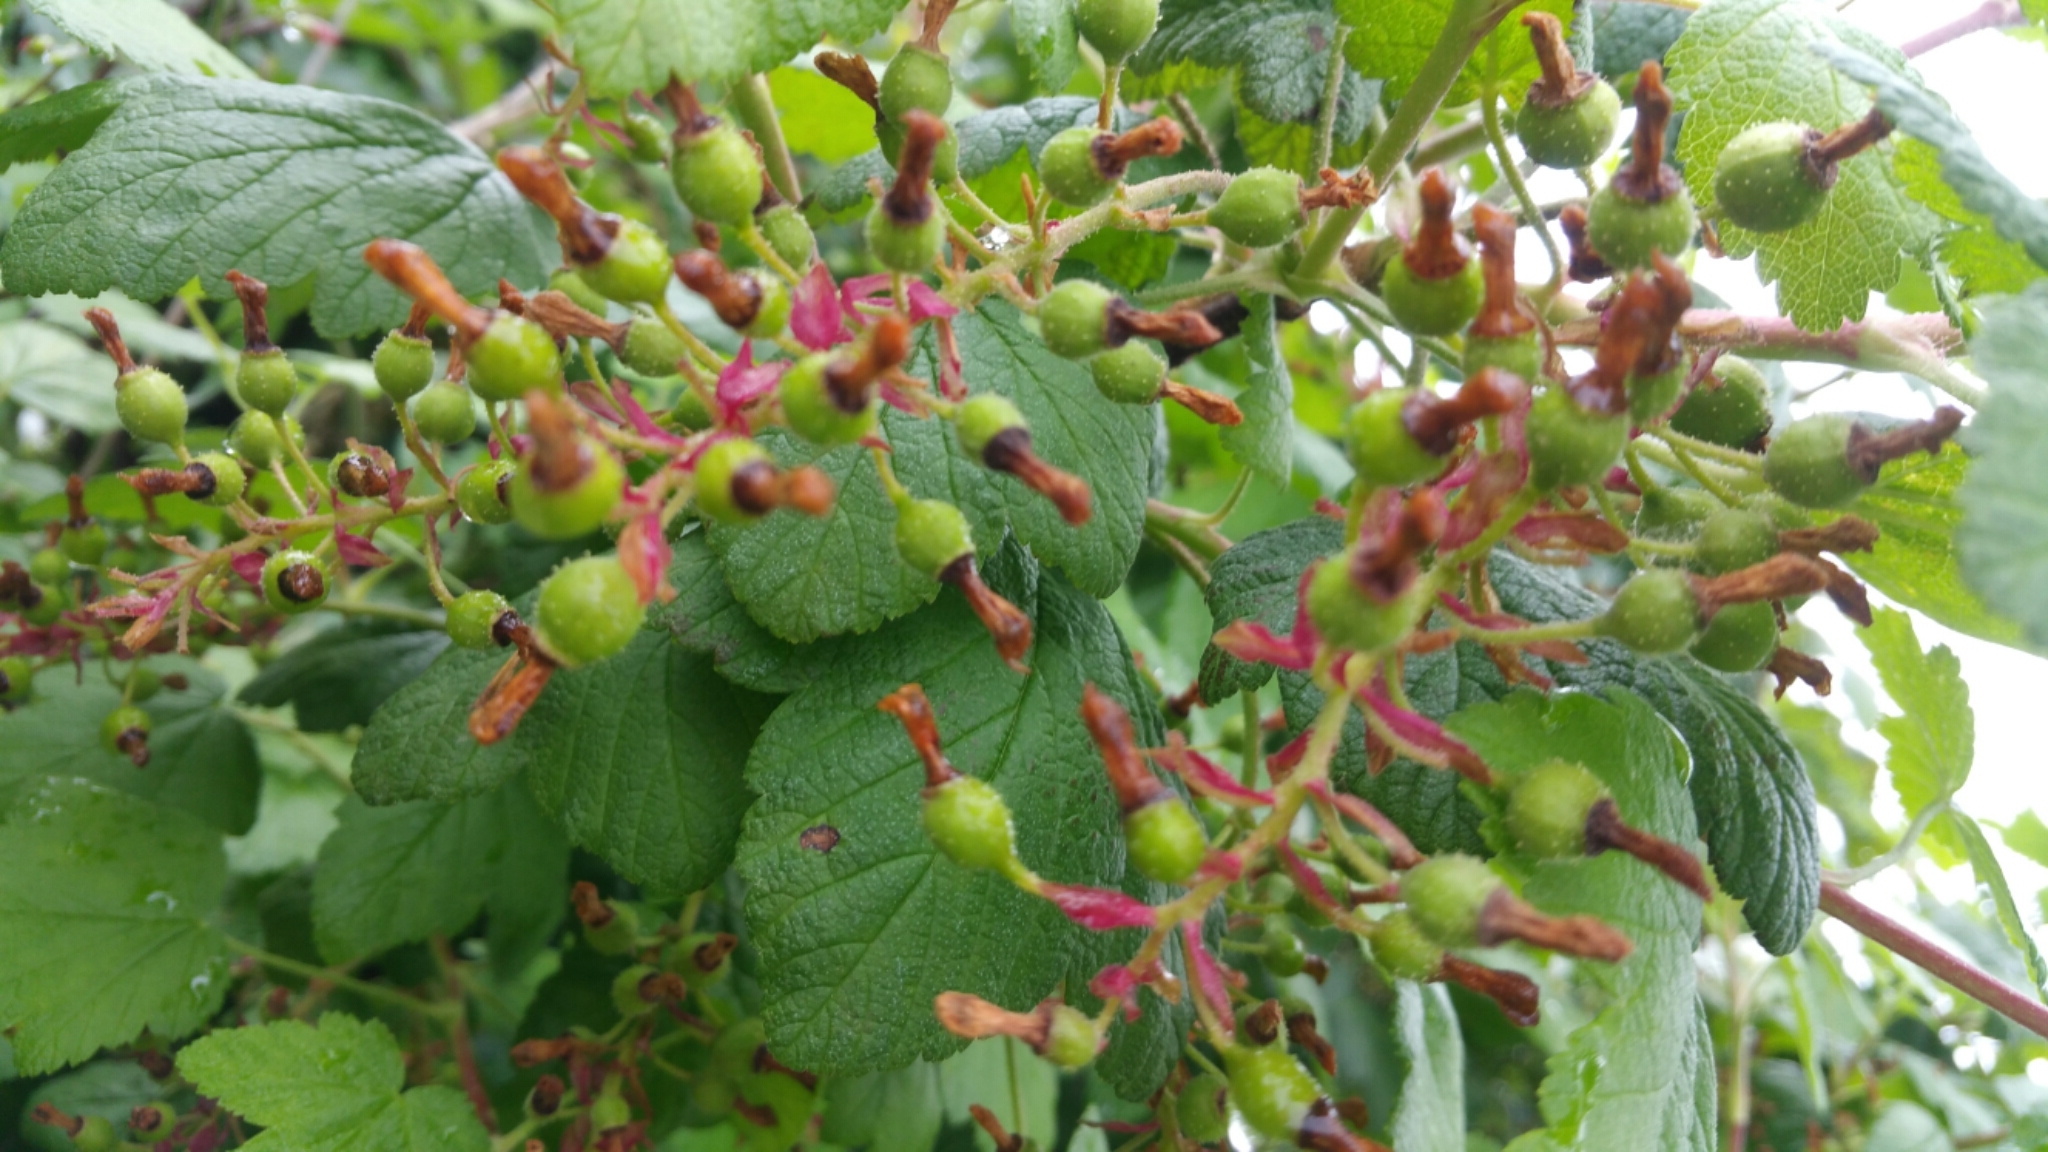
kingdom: Plantae
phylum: Tracheophyta
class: Magnoliopsida
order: Saxifragales
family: Grossulariaceae
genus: Ribes
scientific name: Ribes sanguineum
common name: Flowering currant
